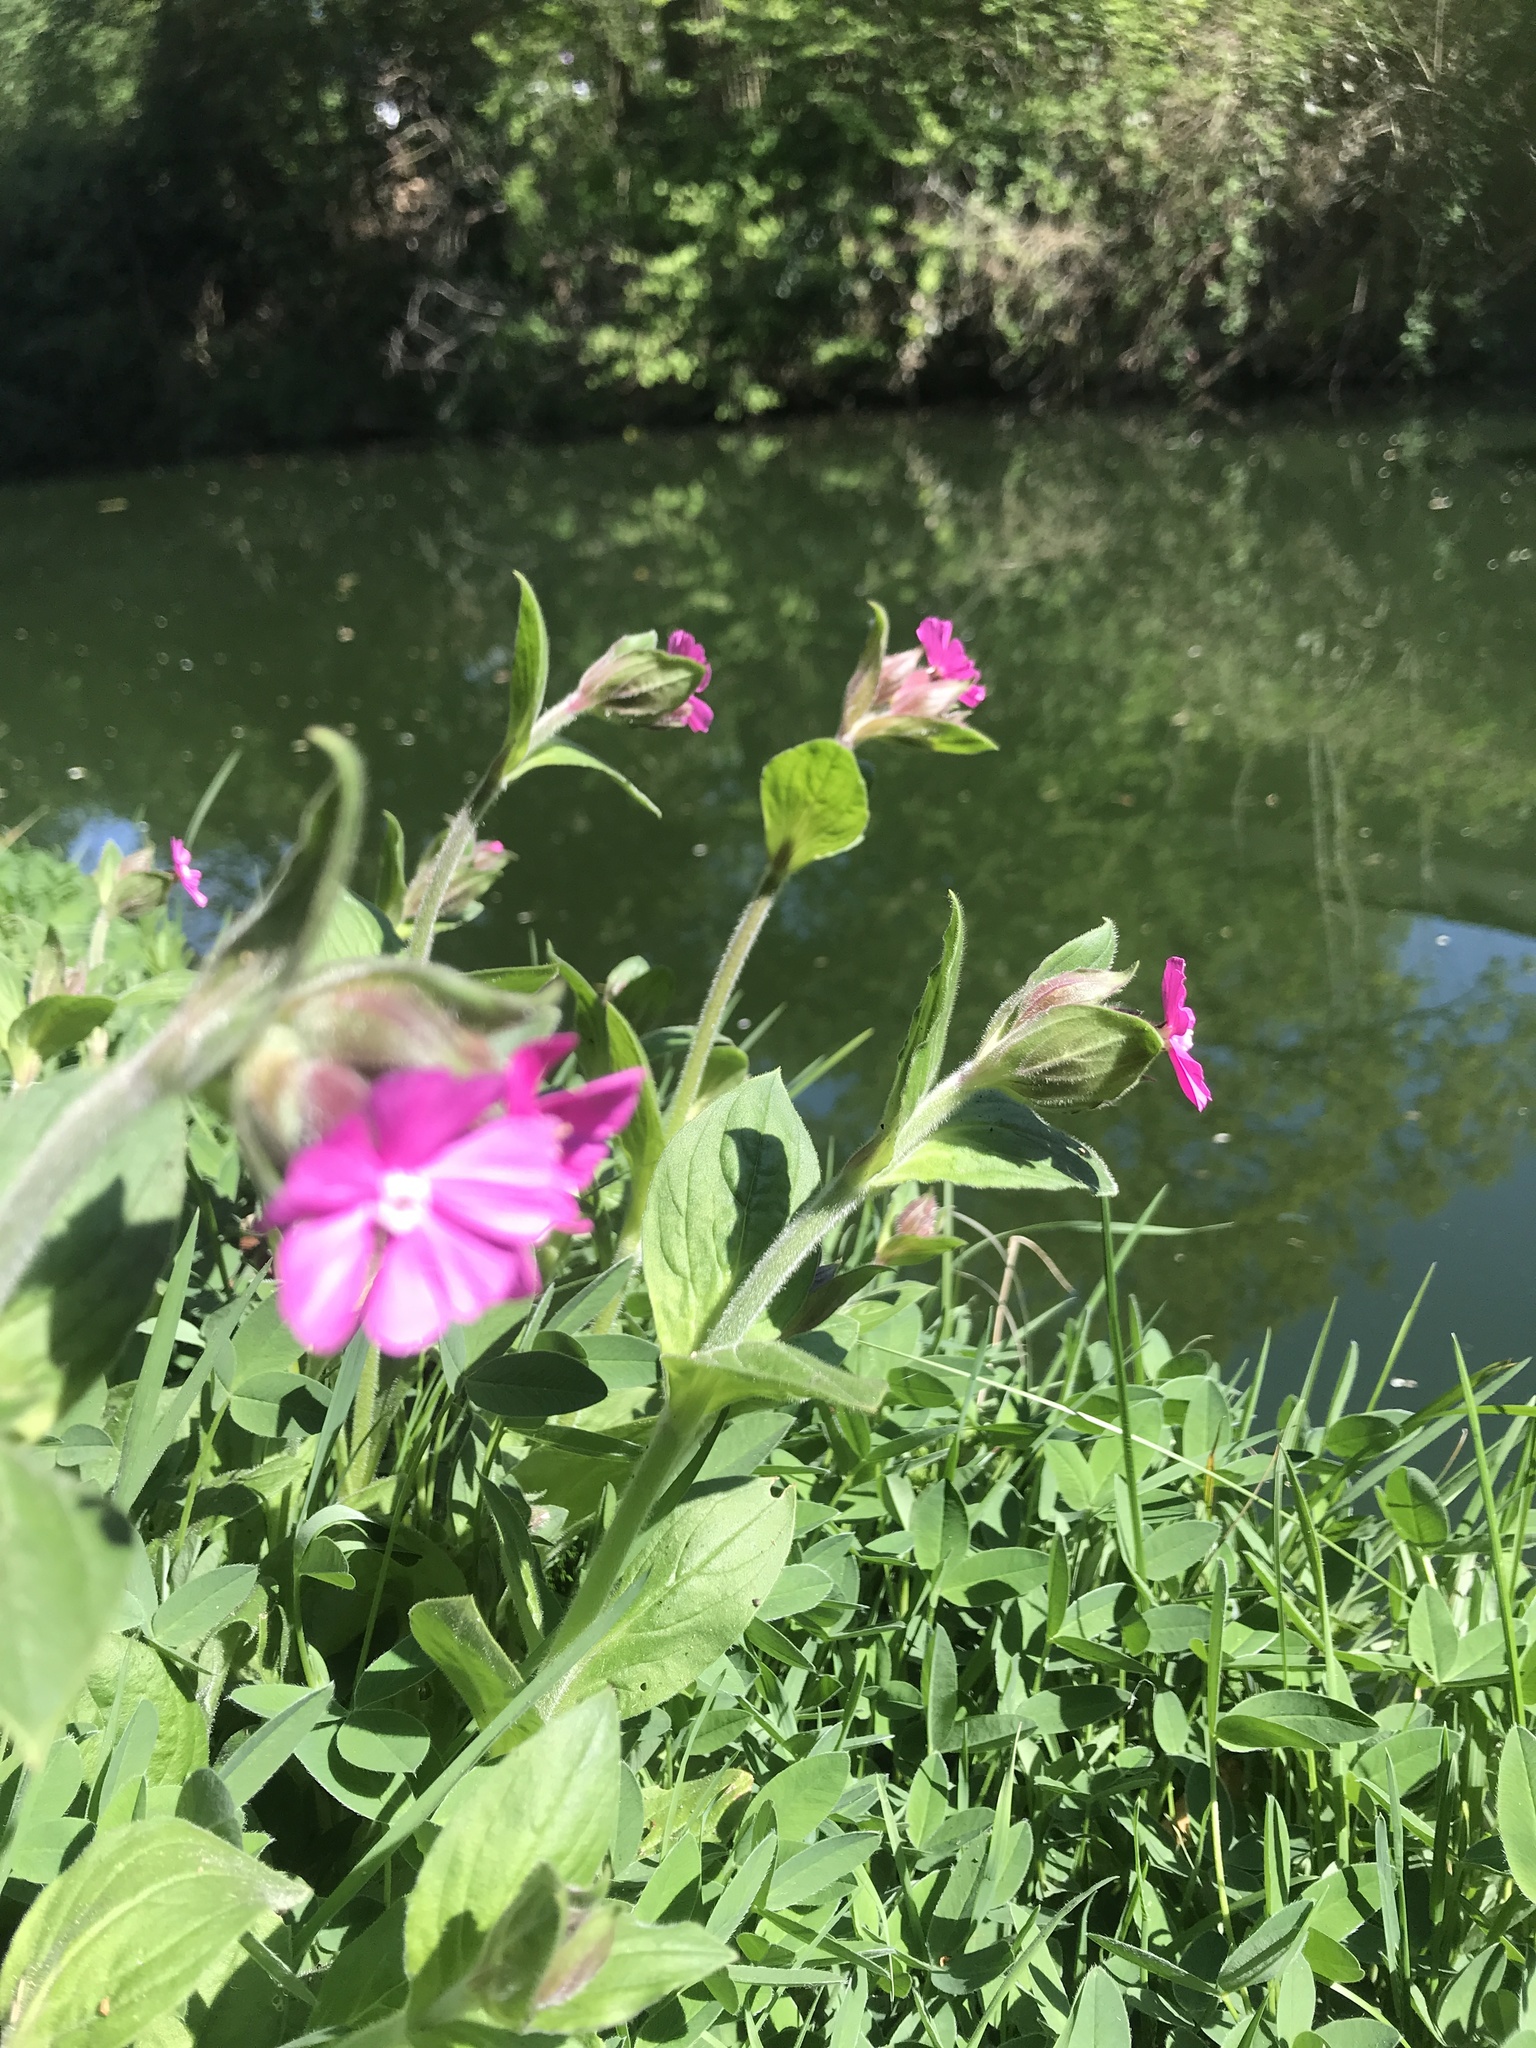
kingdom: Plantae
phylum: Tracheophyta
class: Magnoliopsida
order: Caryophyllales
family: Caryophyllaceae
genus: Silene
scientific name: Silene dioica
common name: Red campion
